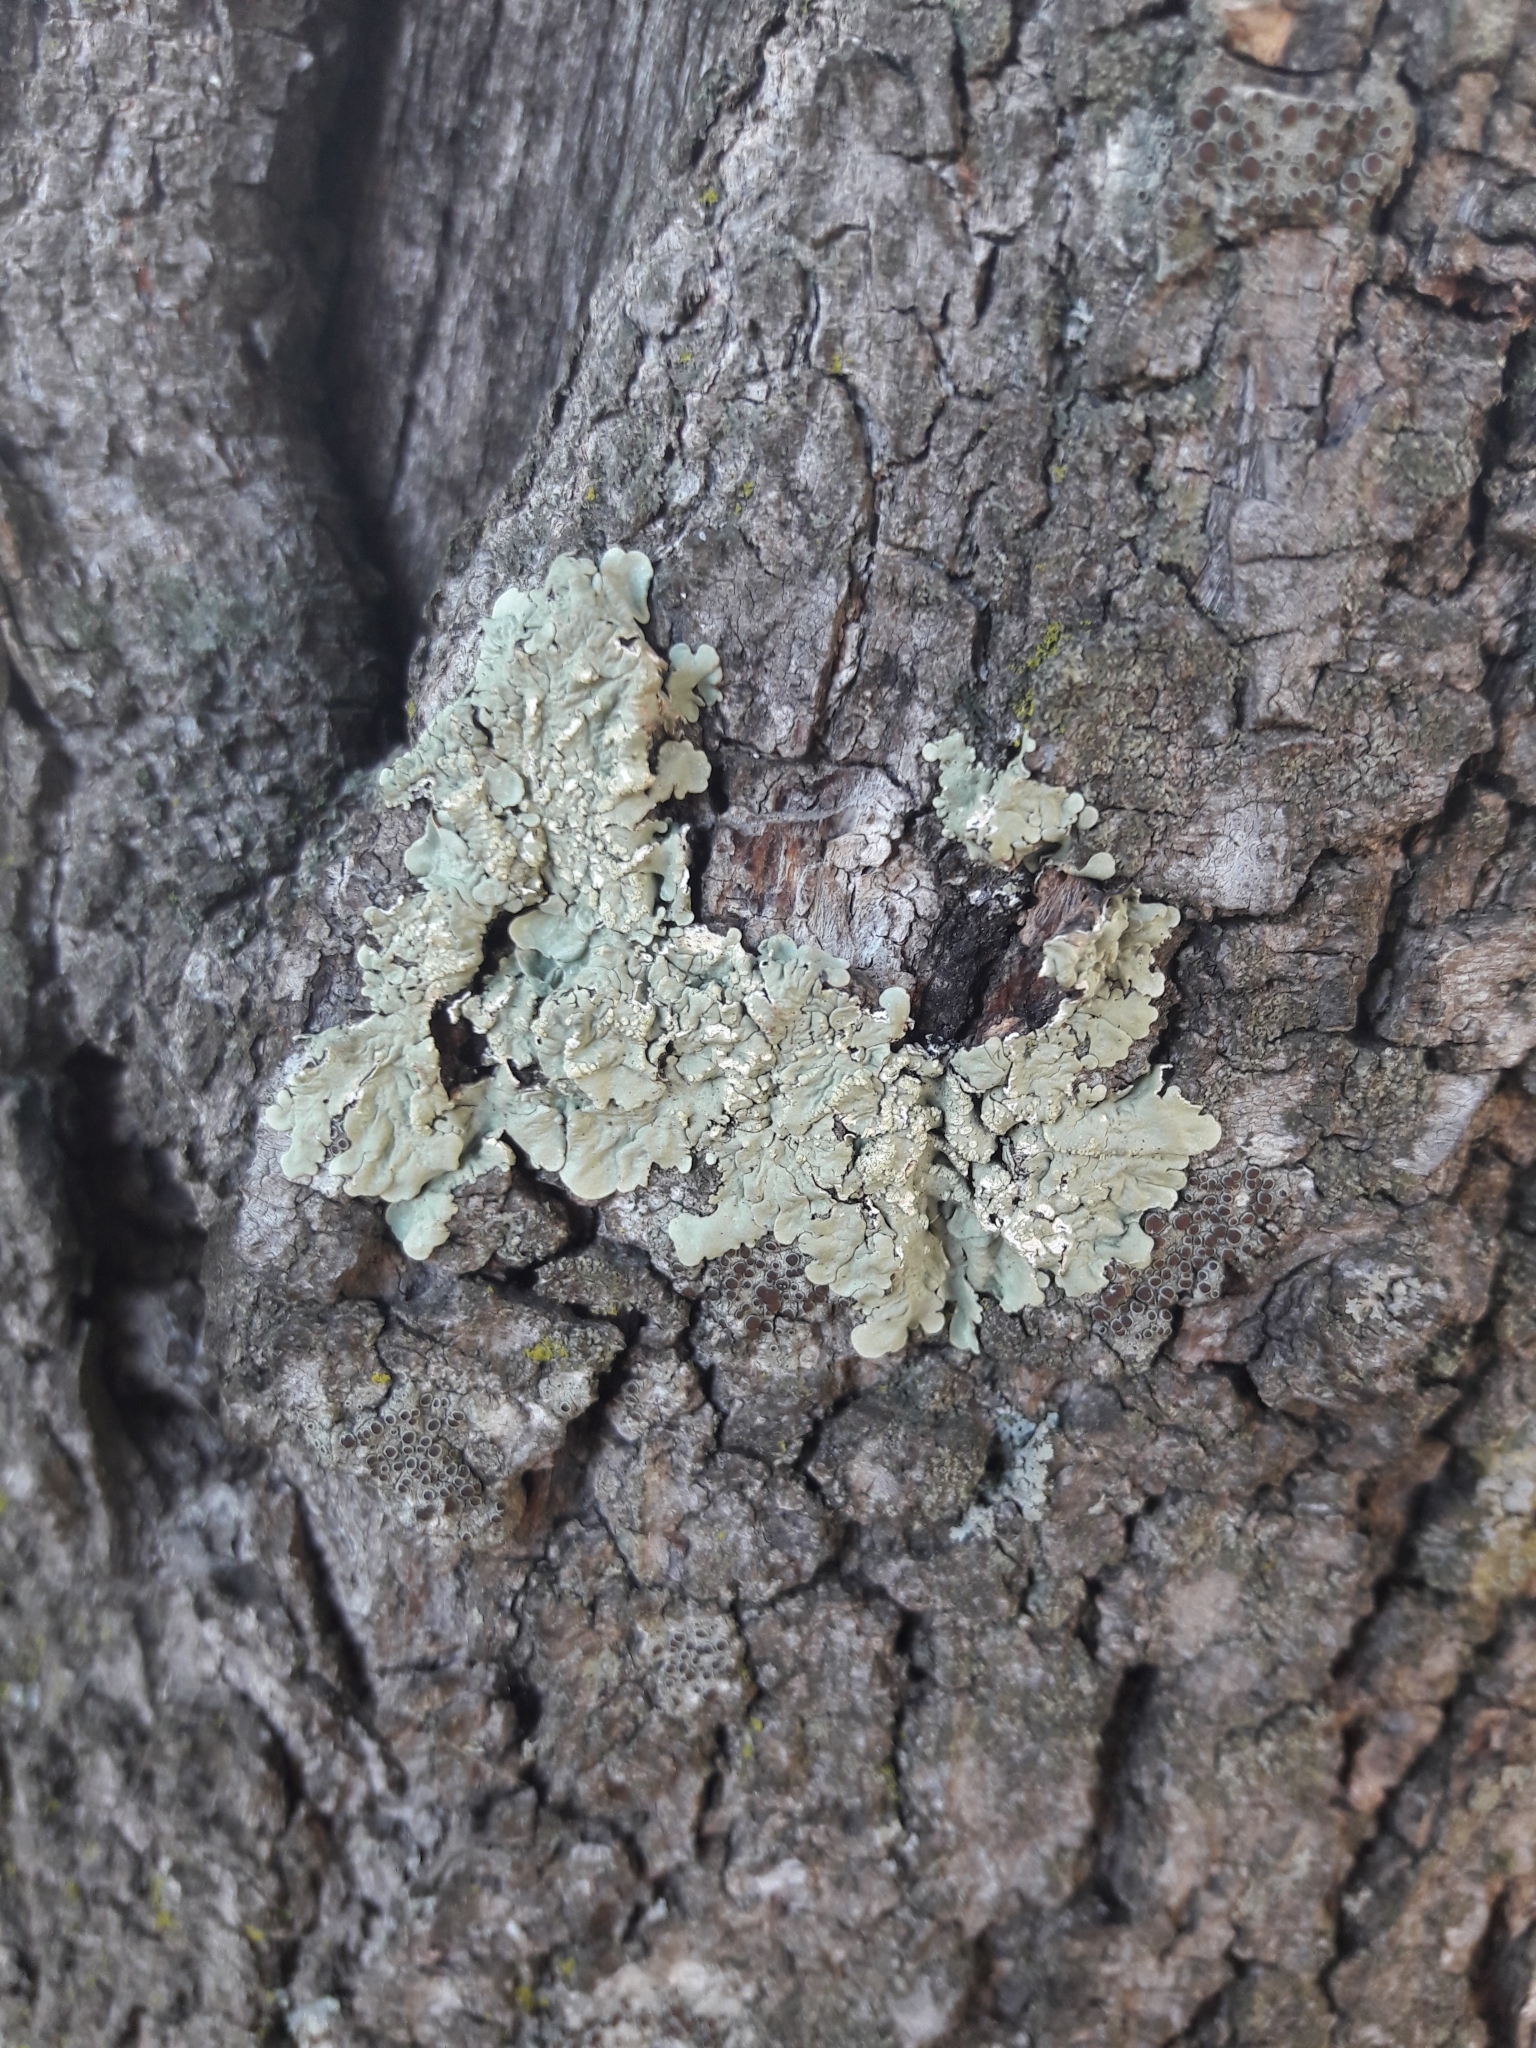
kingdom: Fungi
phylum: Ascomycota
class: Lecanoromycetes
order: Lecanorales
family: Parmeliaceae
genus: Flavoparmelia
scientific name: Flavoparmelia caperata
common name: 40-mile per hour lichen
